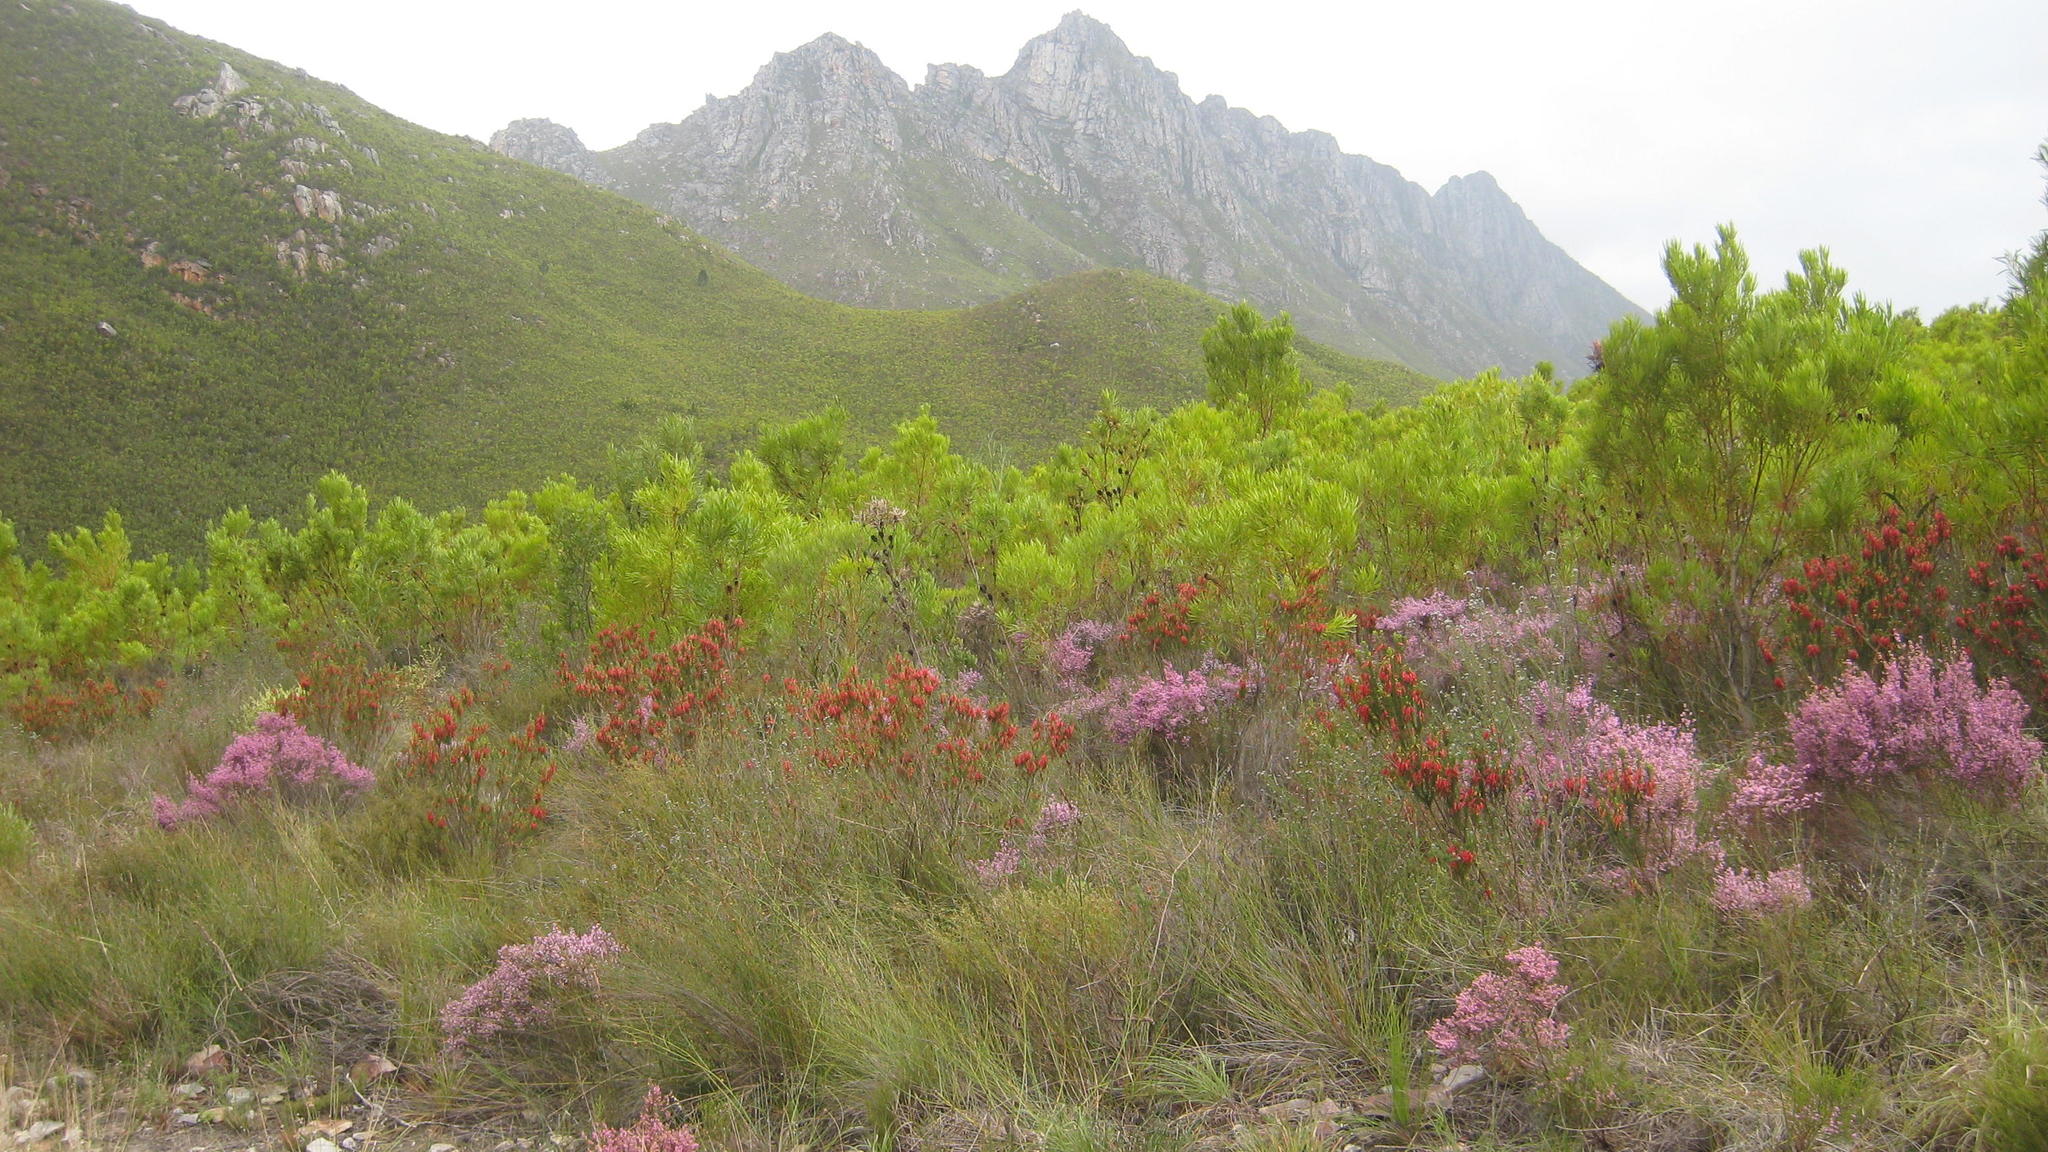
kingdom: Plantae
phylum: Tracheophyta
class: Magnoliopsida
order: Ericales
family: Ericaceae
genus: Erica
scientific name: Erica plukenetii
